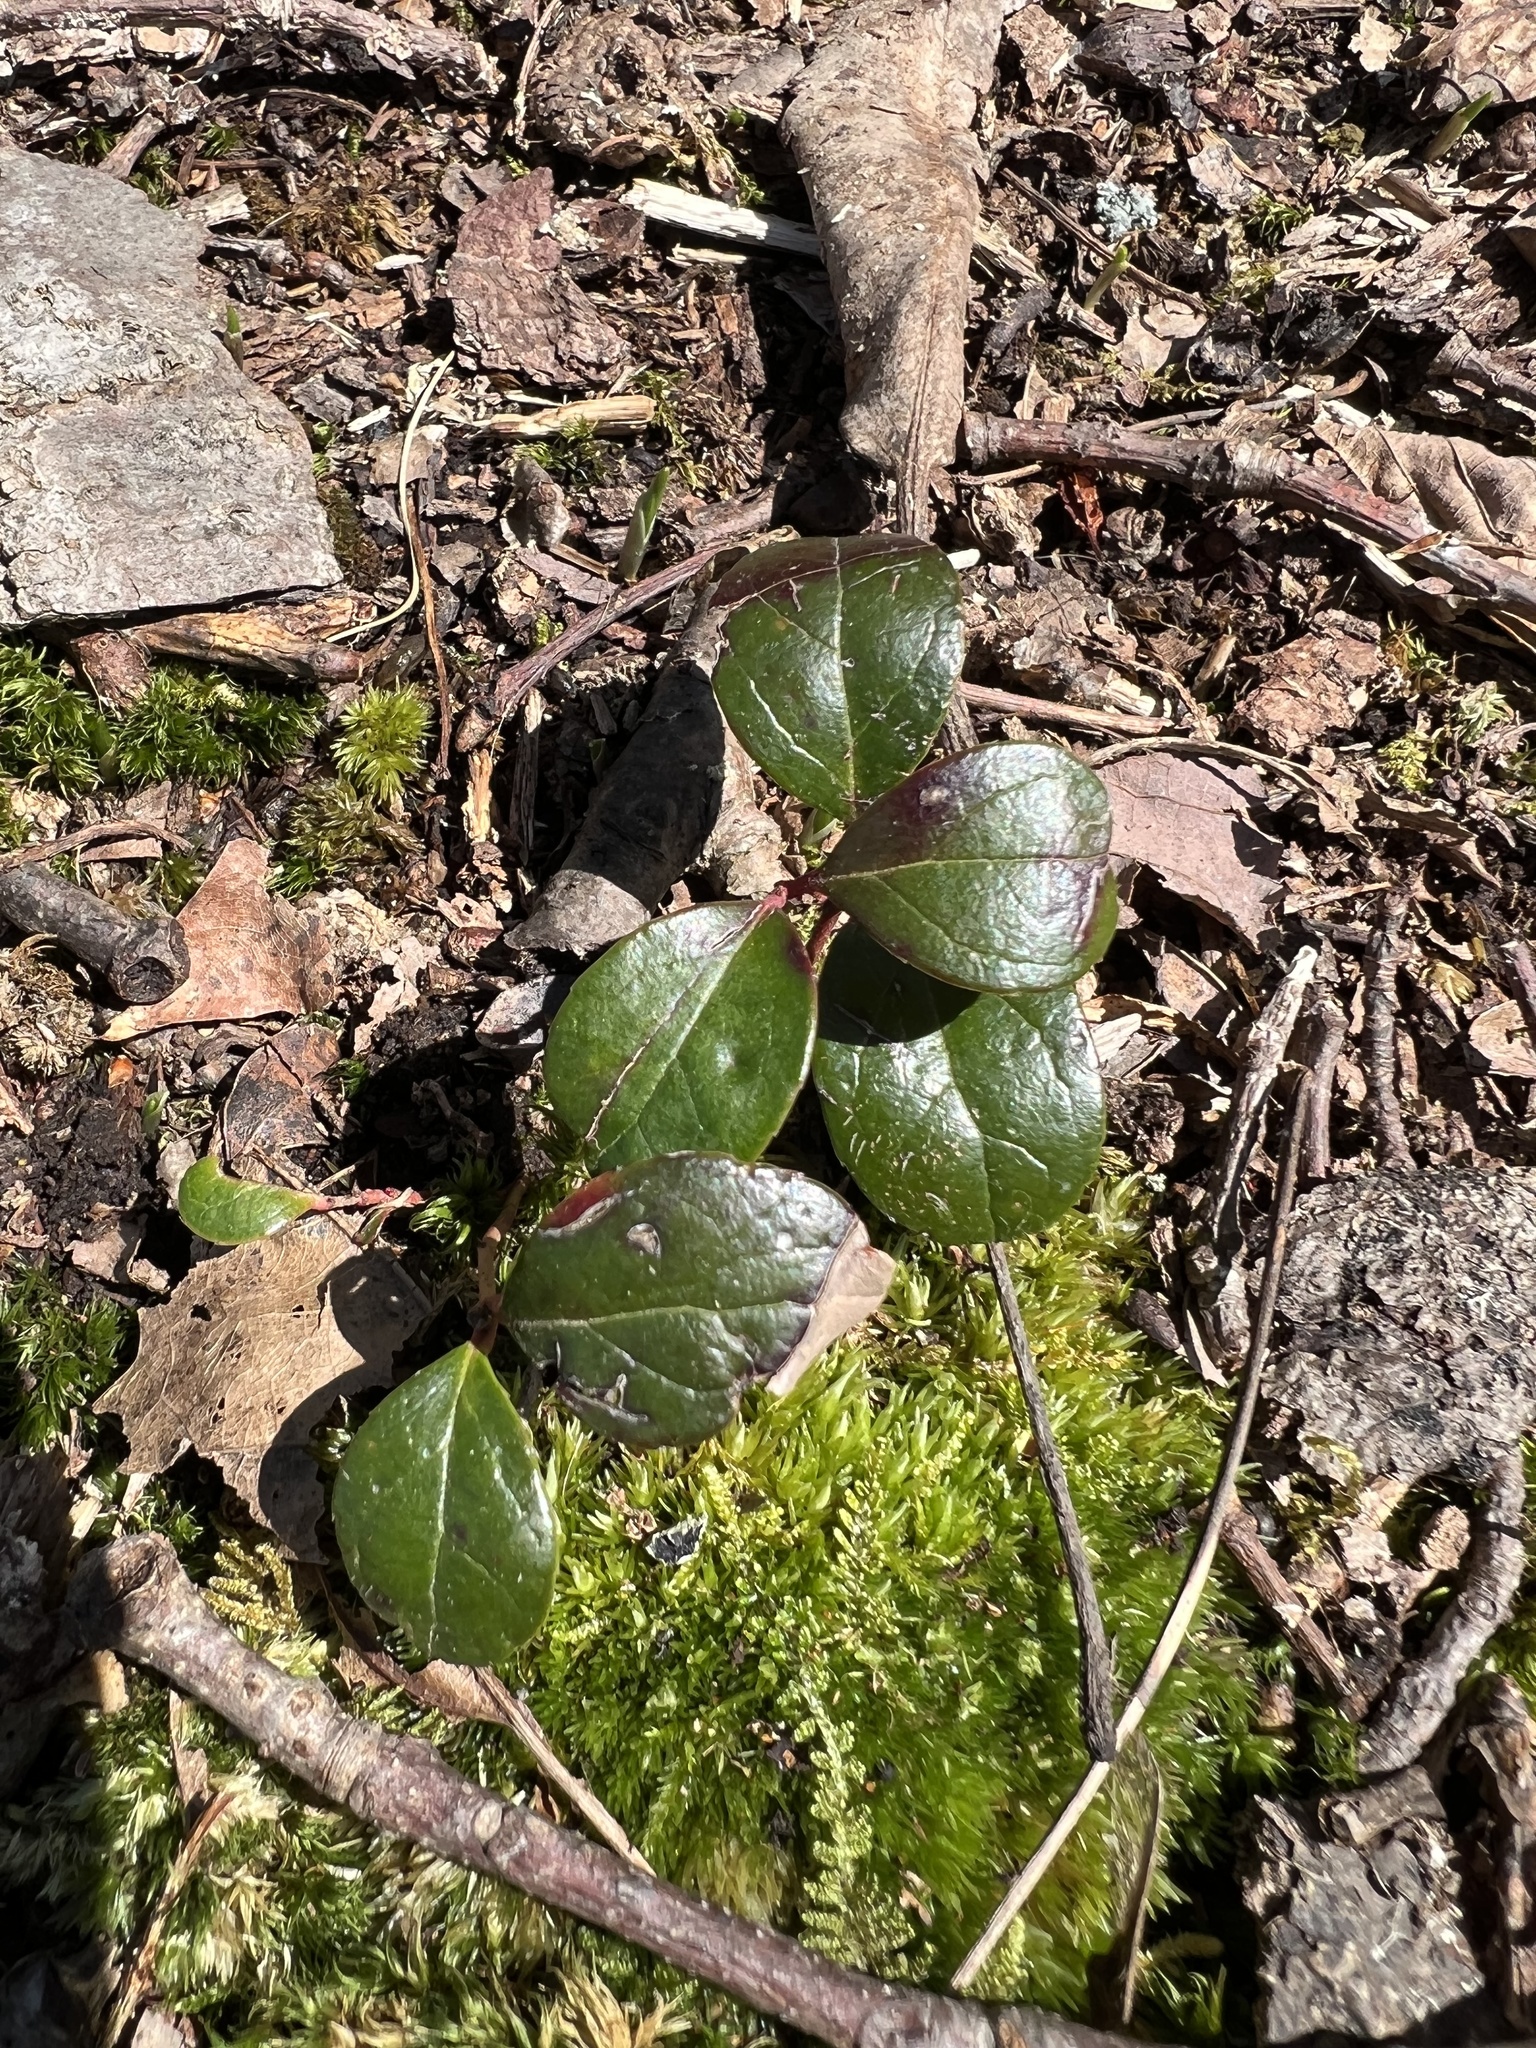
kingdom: Plantae
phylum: Tracheophyta
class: Magnoliopsida
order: Ericales
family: Ericaceae
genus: Gaultheria
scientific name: Gaultheria procumbens
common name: Checkerberry
